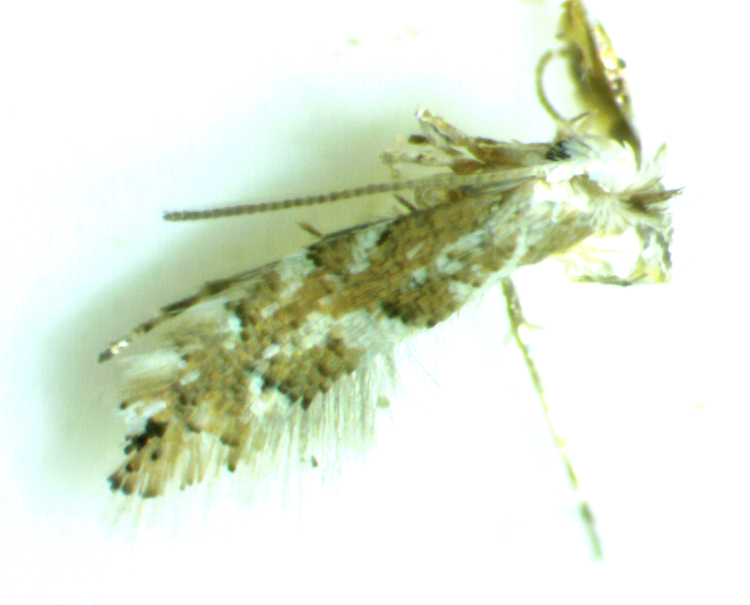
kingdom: Animalia
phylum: Arthropoda
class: Insecta
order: Lepidoptera
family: Gracillariidae
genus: Phyllonorycter
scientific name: Phyllonorycter salicifoliella
